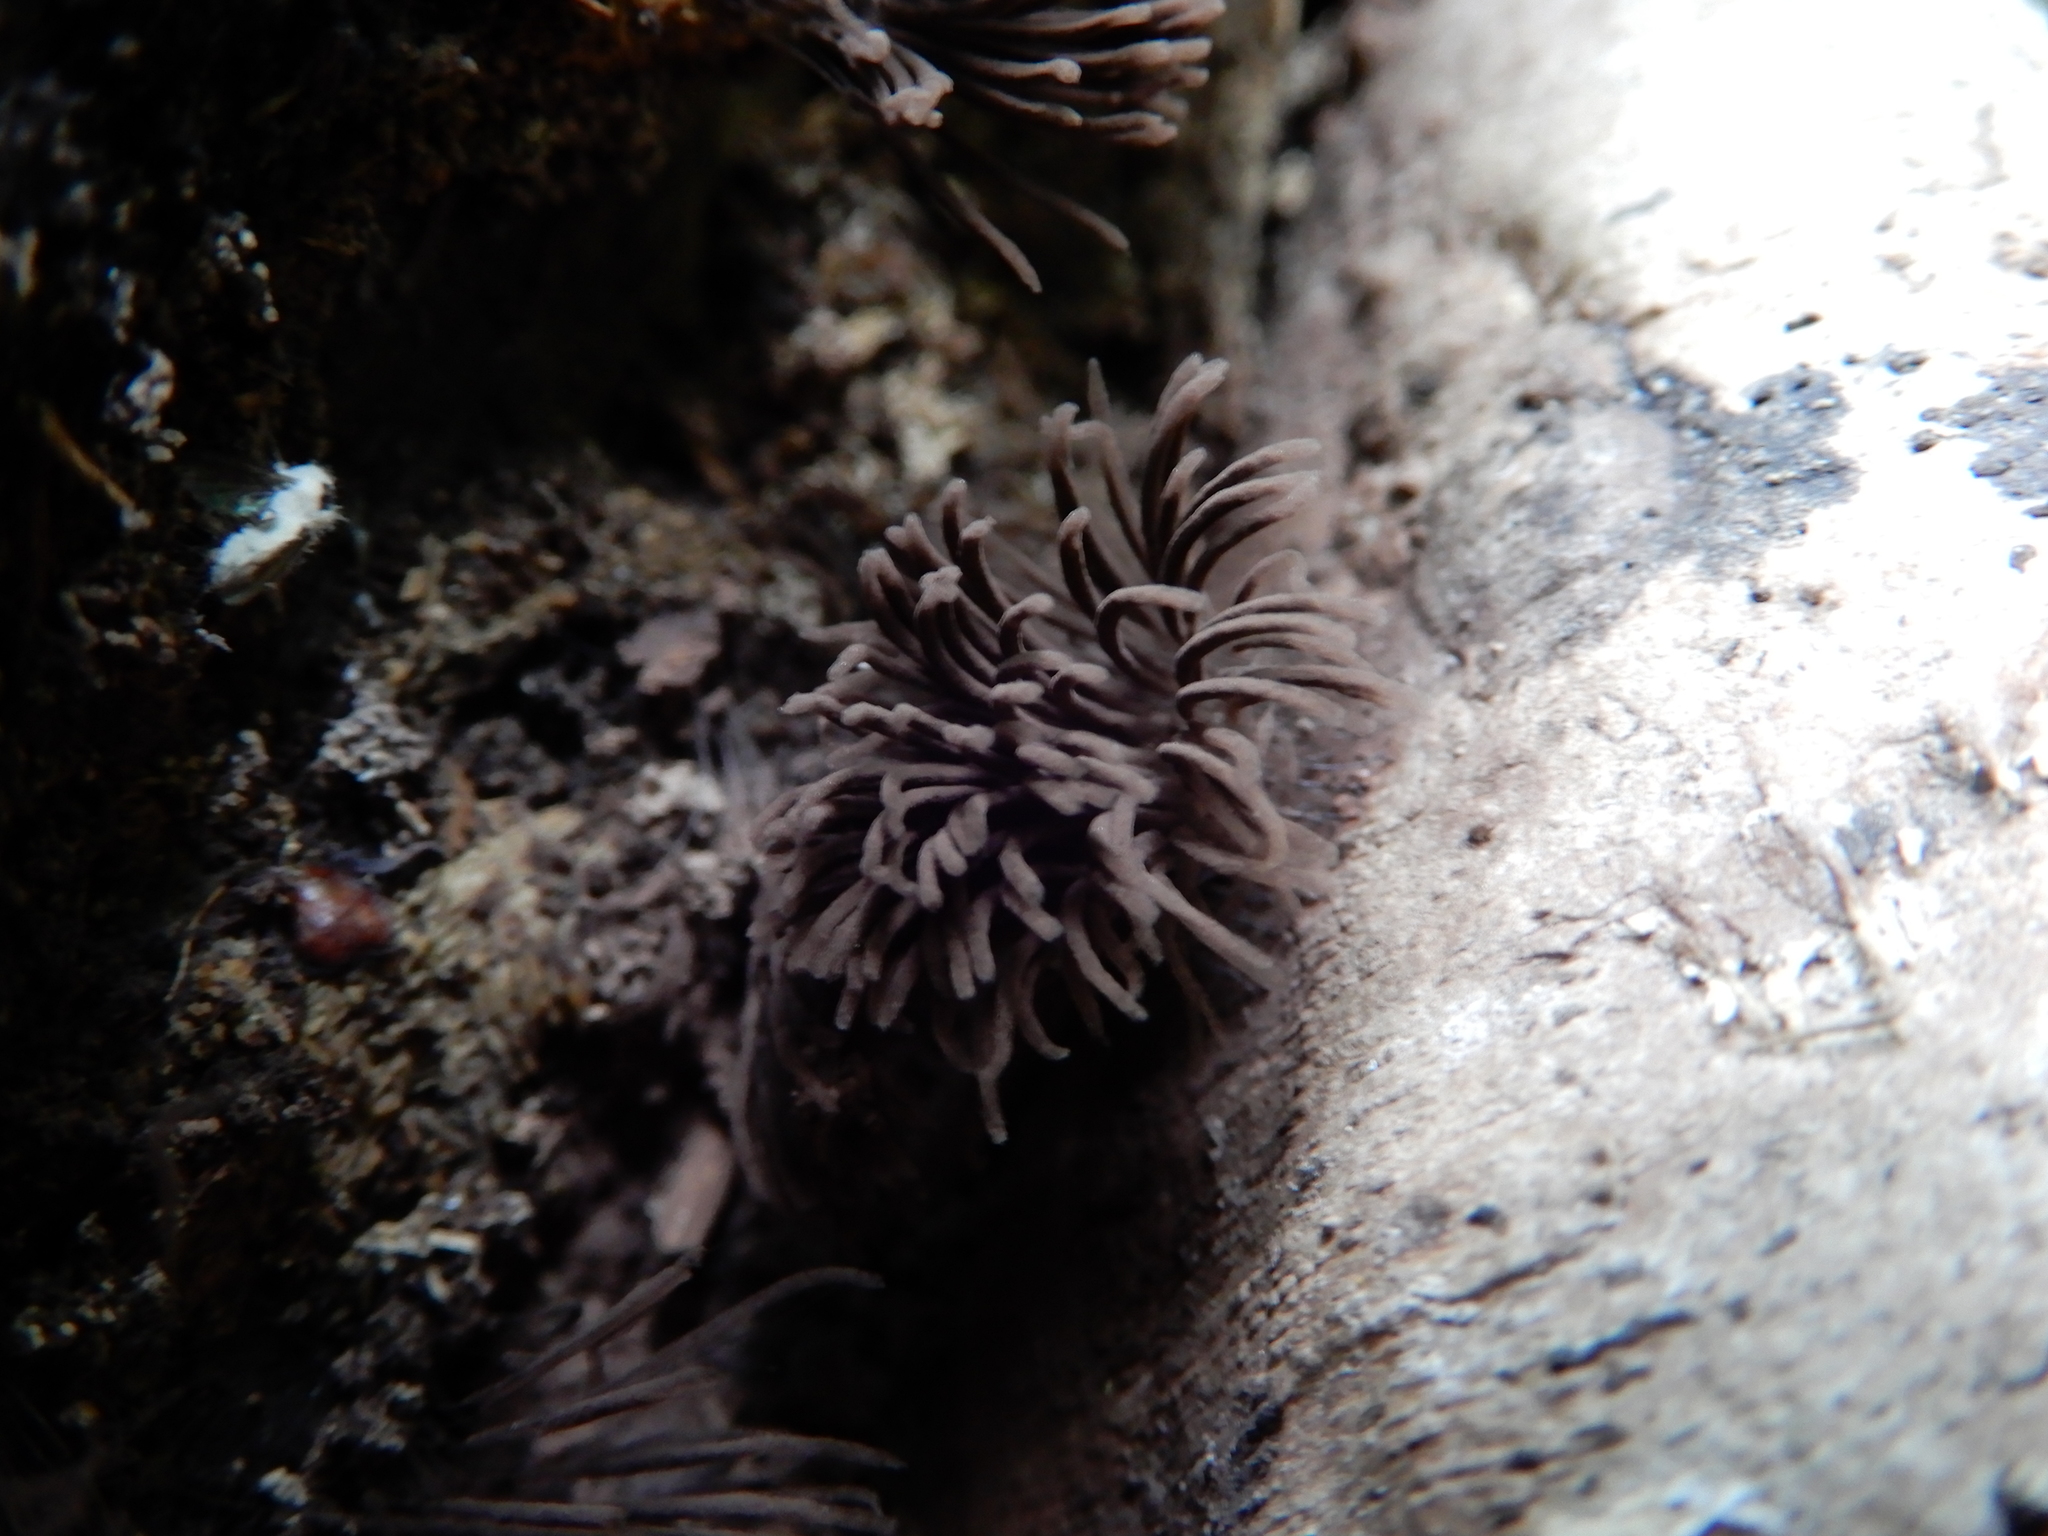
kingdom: Protozoa
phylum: Mycetozoa
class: Myxomycetes
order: Stemonitidales
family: Stemonitidaceae
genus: Stemonitis
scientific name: Stemonitis
